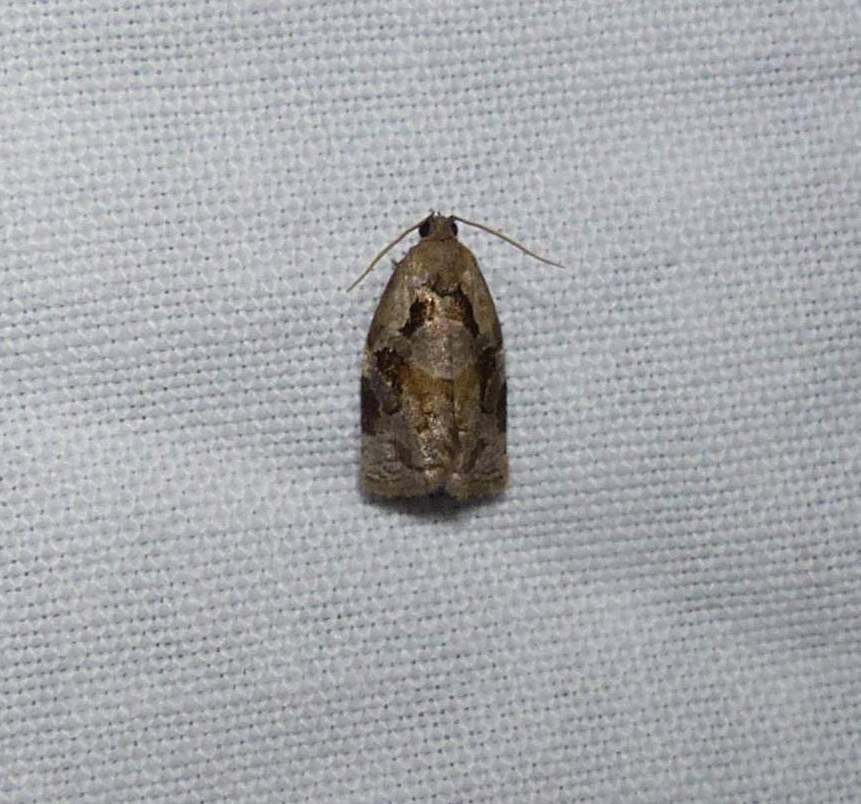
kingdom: Animalia
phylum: Arthropoda
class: Insecta
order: Lepidoptera
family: Tortricidae
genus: Archips
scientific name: Archips grisea
